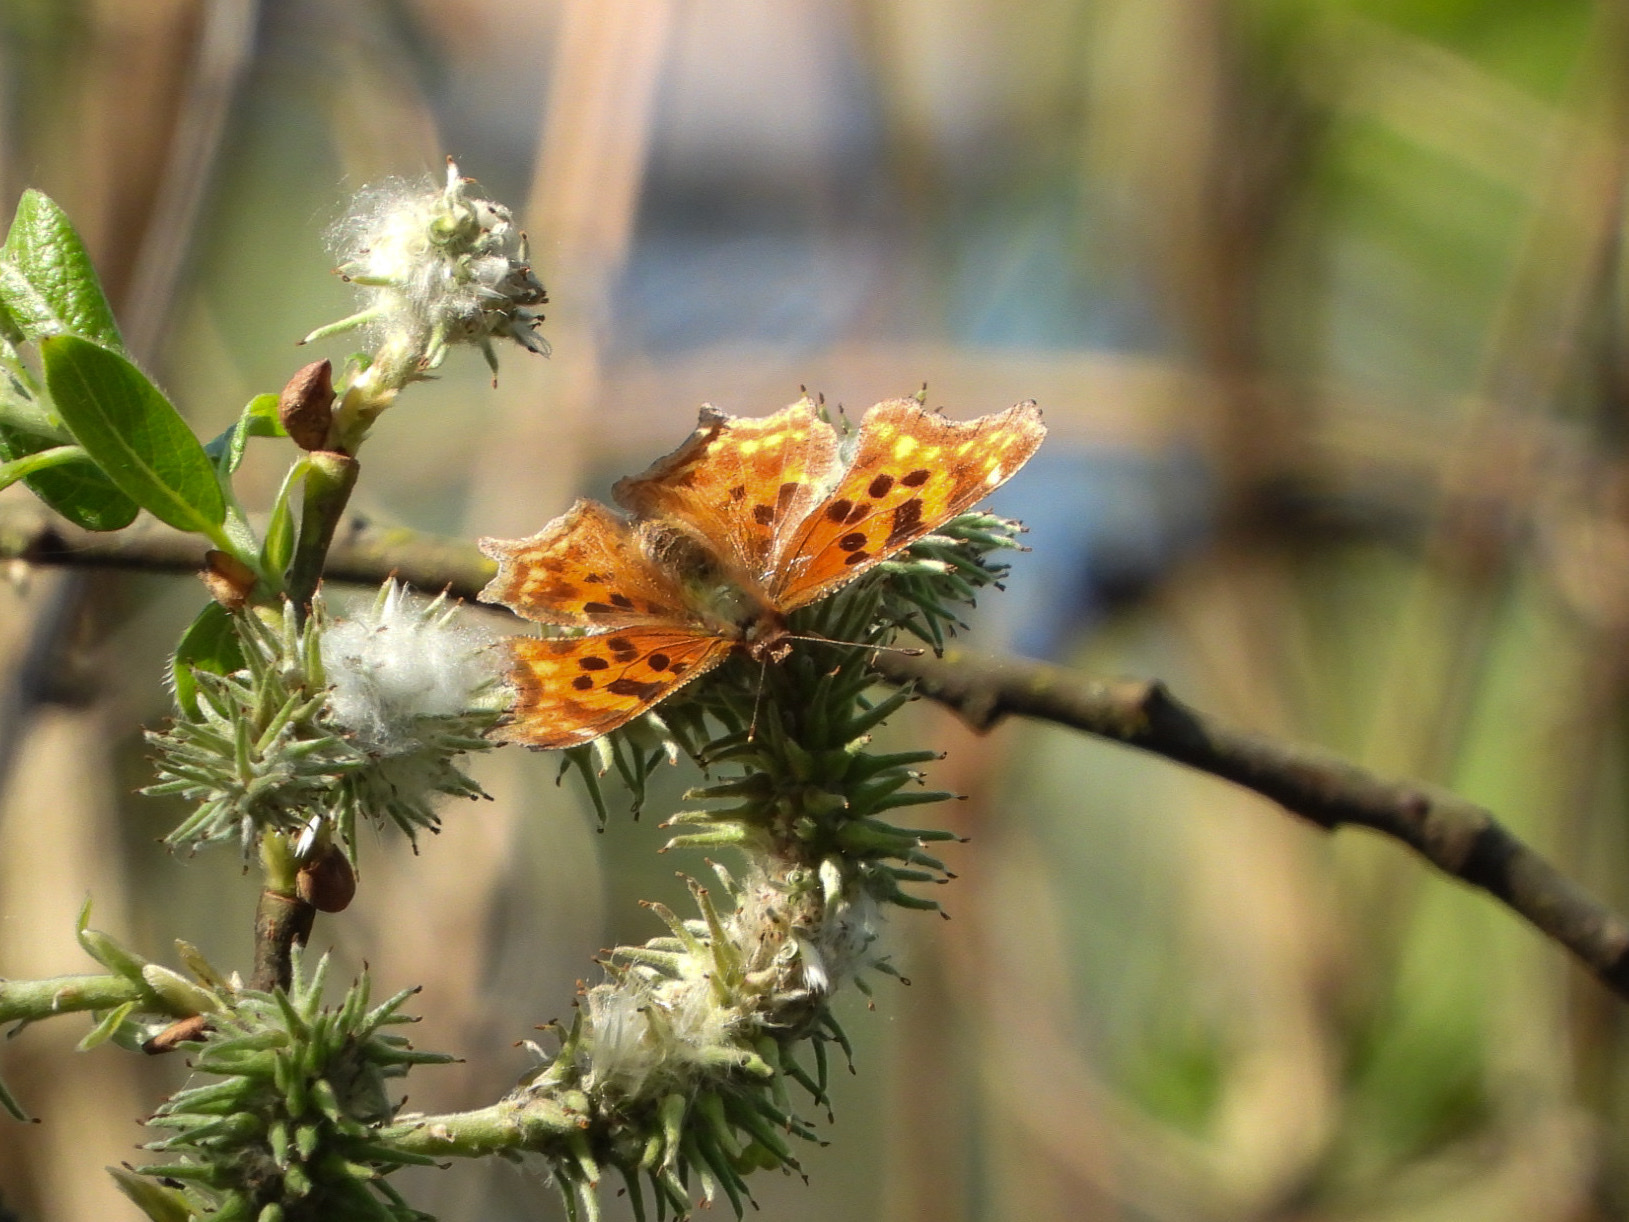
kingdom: Animalia
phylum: Arthropoda
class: Insecta
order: Lepidoptera
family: Nymphalidae
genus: Polygonia
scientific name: Polygonia satyrus
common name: Satyr angle wing
